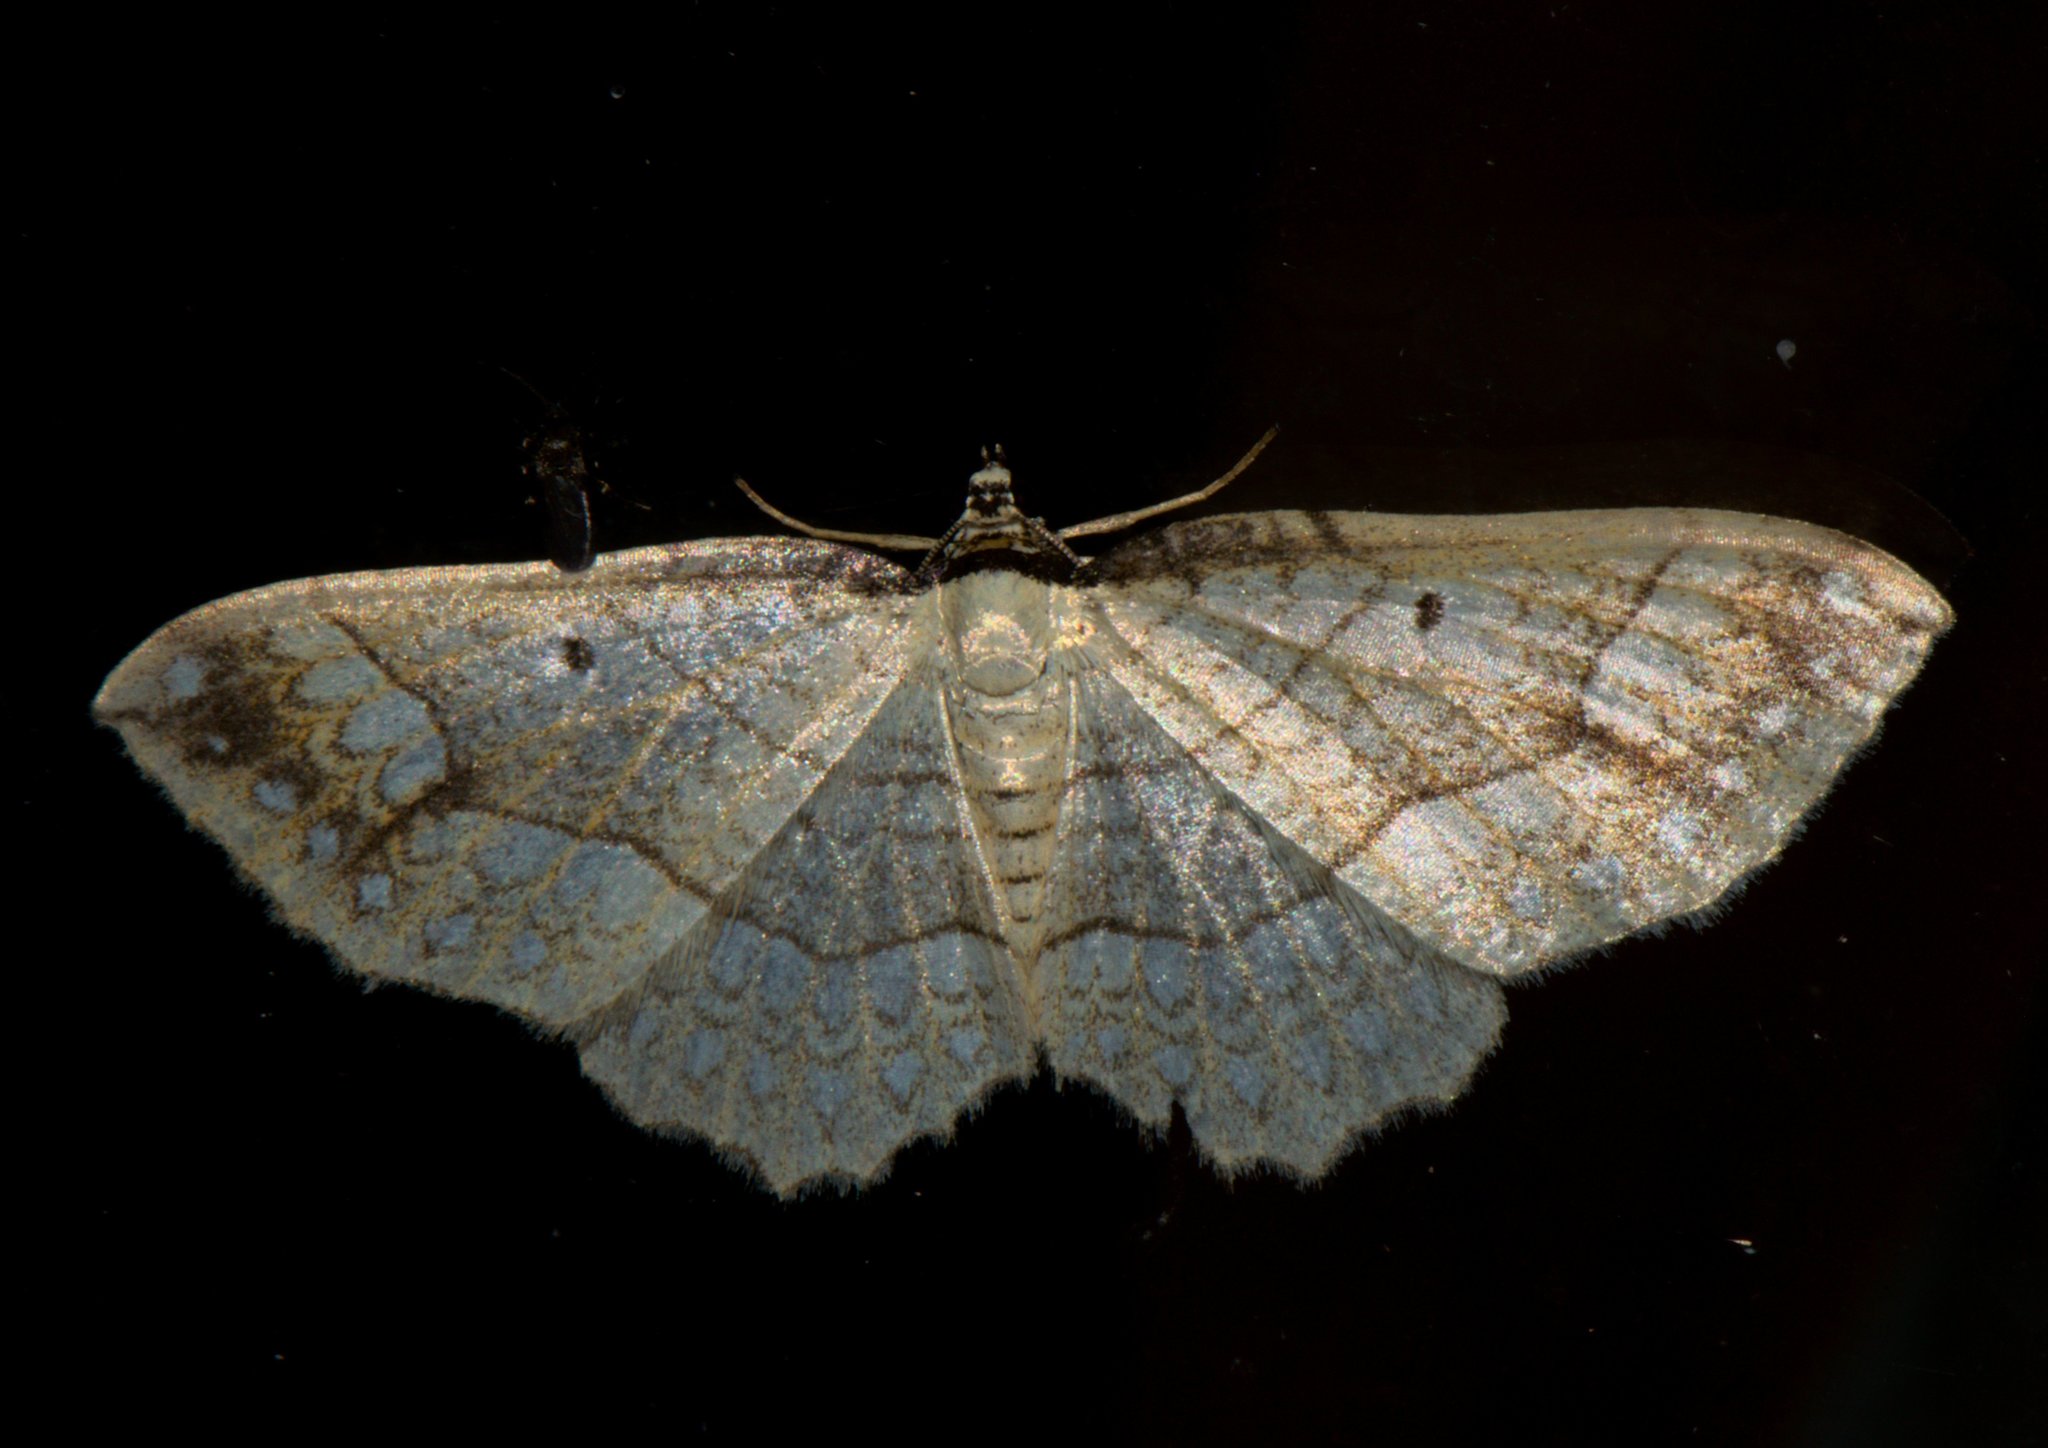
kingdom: Animalia
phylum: Arthropoda
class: Insecta
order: Lepidoptera
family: Geometridae
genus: Laciniodes
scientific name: Laciniodes plurilinearia
